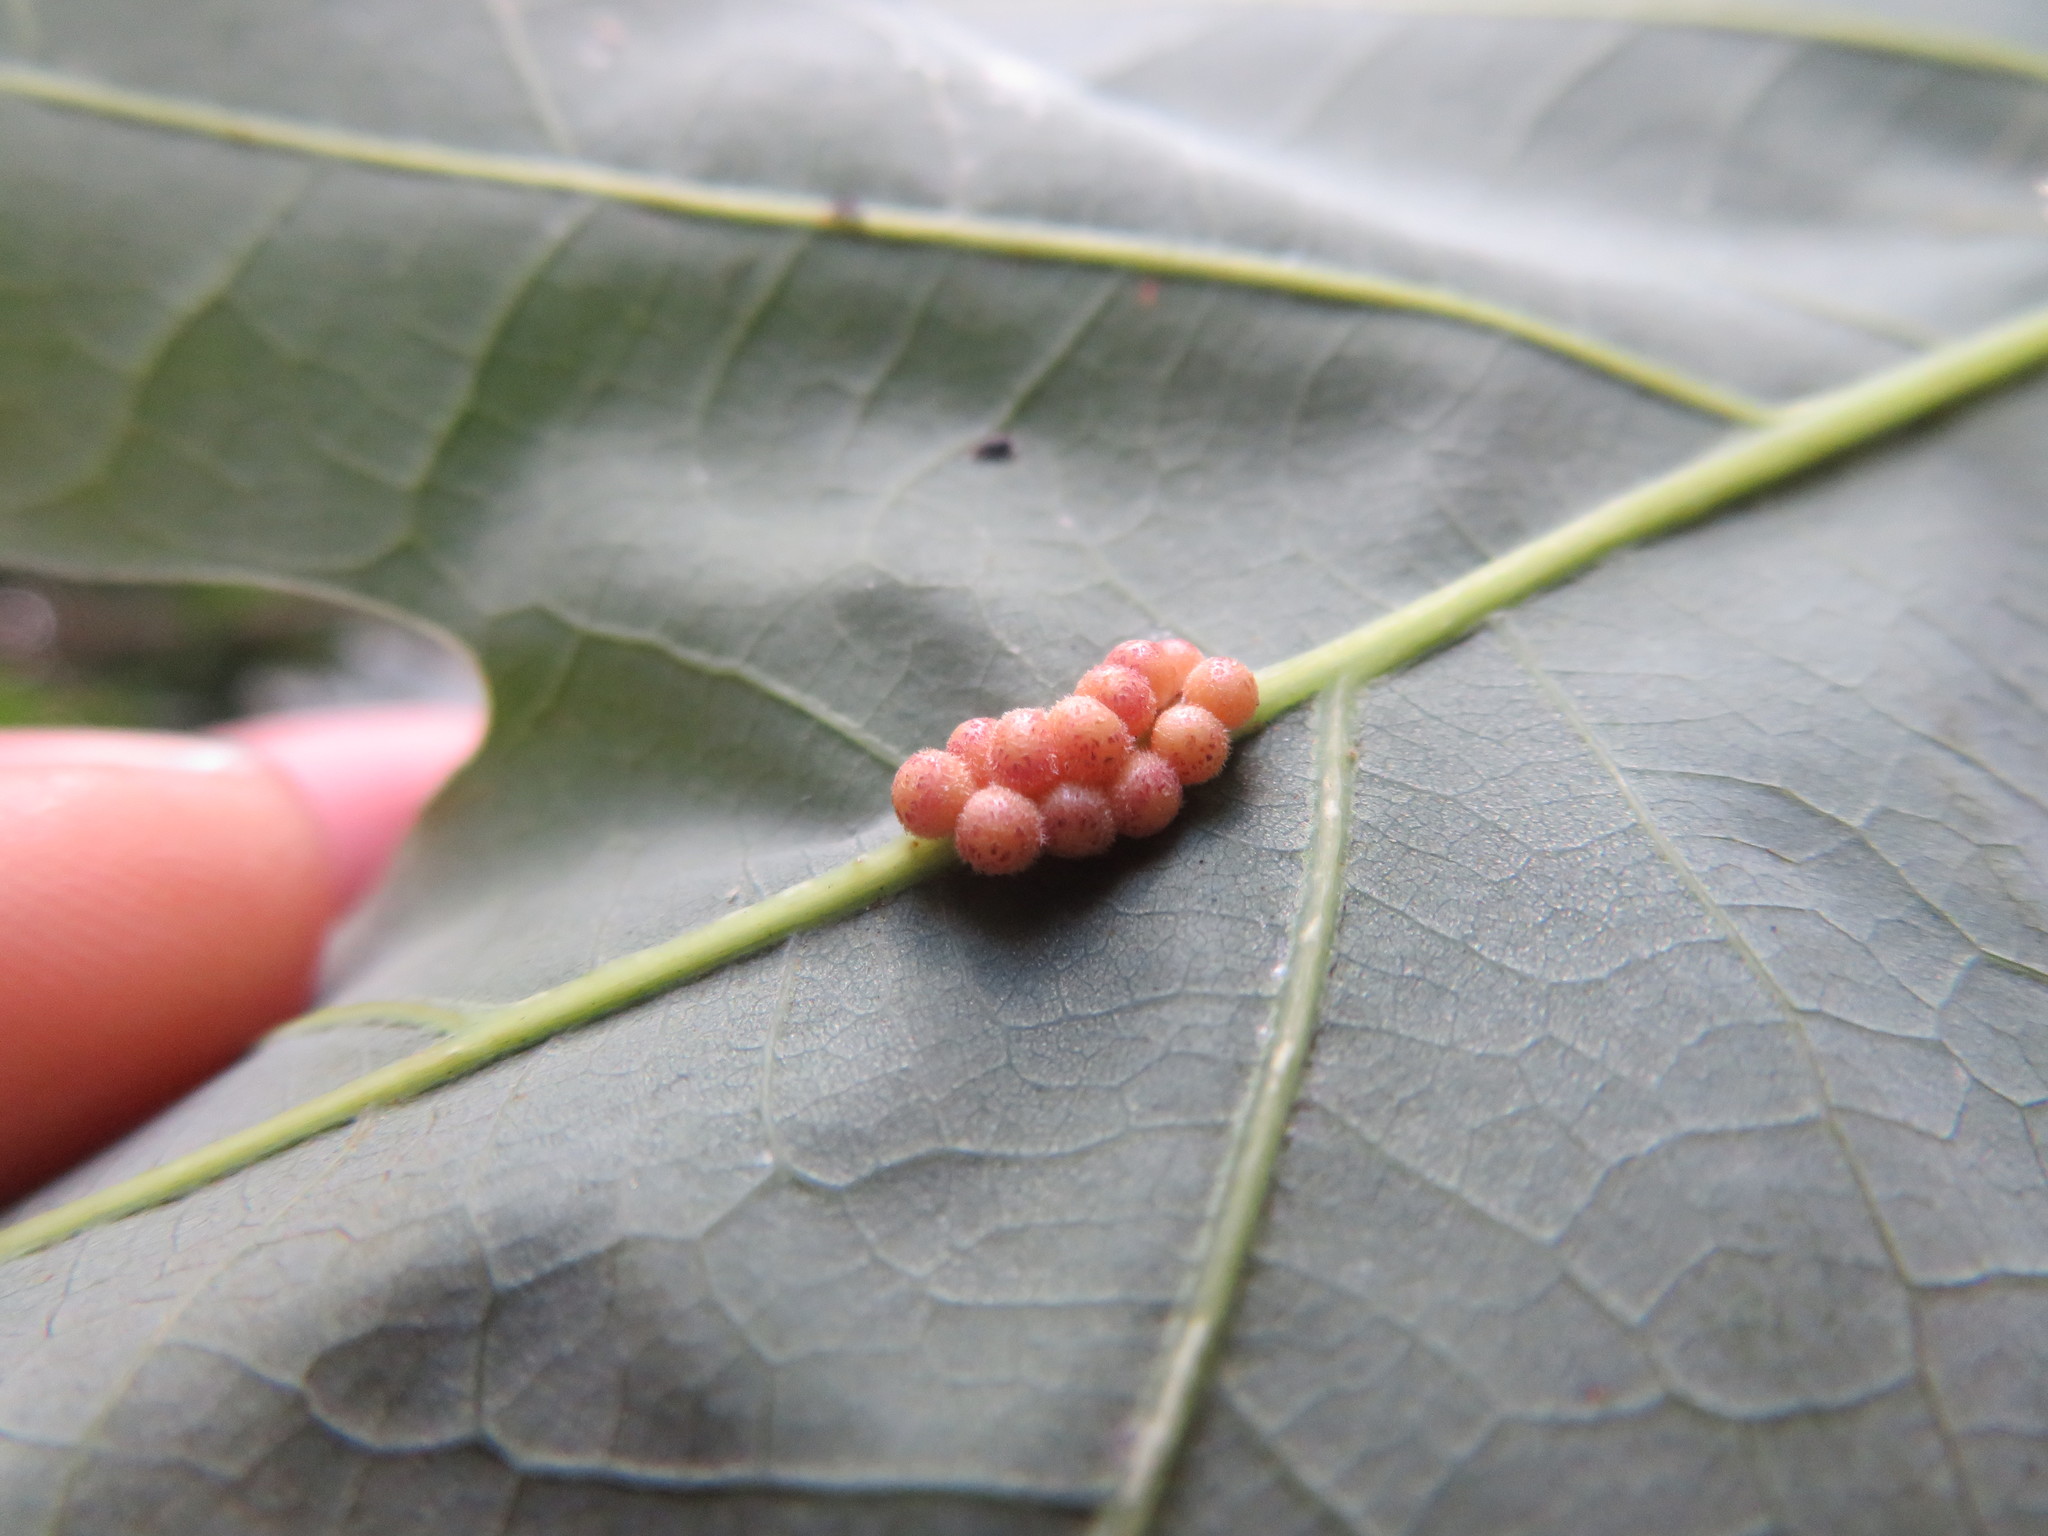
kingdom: Animalia
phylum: Arthropoda
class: Insecta
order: Hymenoptera
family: Cynipidae
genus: Andricus
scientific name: Andricus
